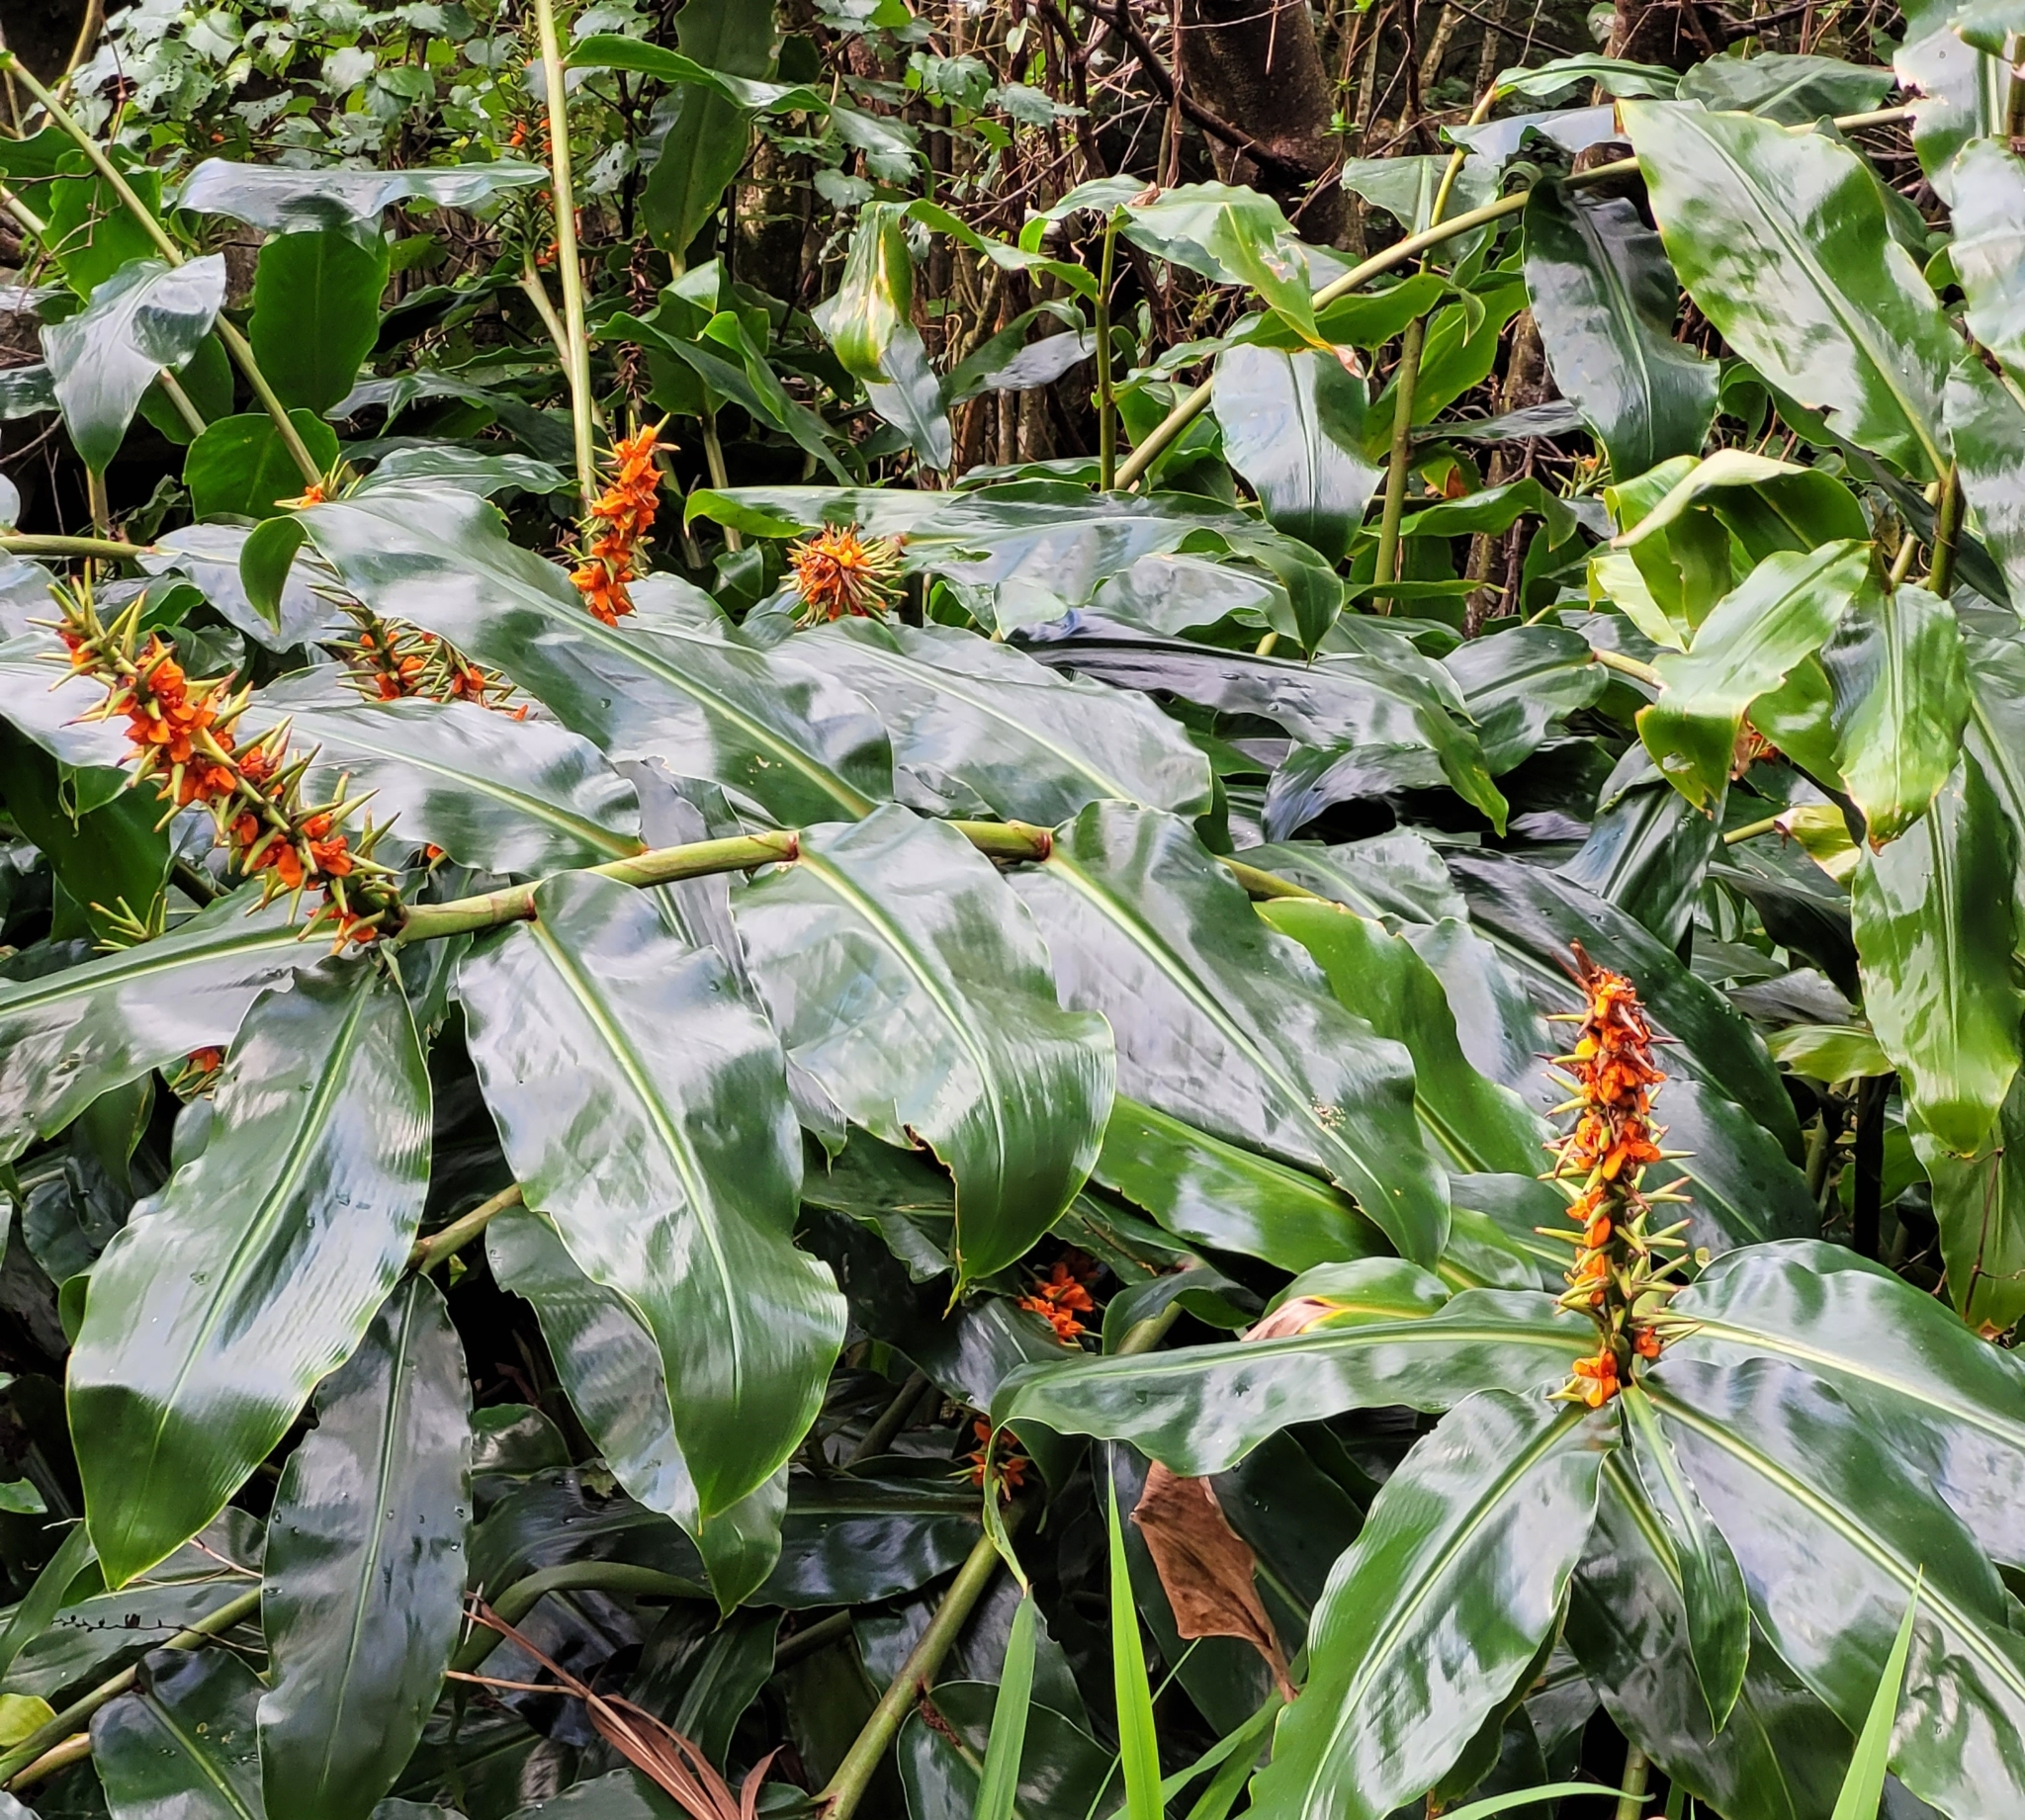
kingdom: Plantae
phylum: Tracheophyta
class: Liliopsida
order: Zingiberales
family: Zingiberaceae
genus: Hedychium
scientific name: Hedychium gardnerianum
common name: Himalayan ginger
